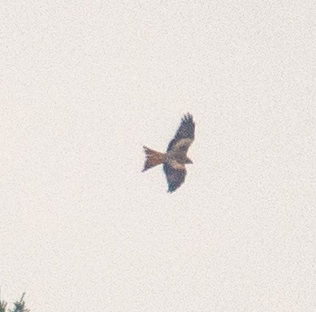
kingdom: Animalia
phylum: Chordata
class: Aves
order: Accipitriformes
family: Accipitridae
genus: Milvus
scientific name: Milvus milvus
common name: Red kite
